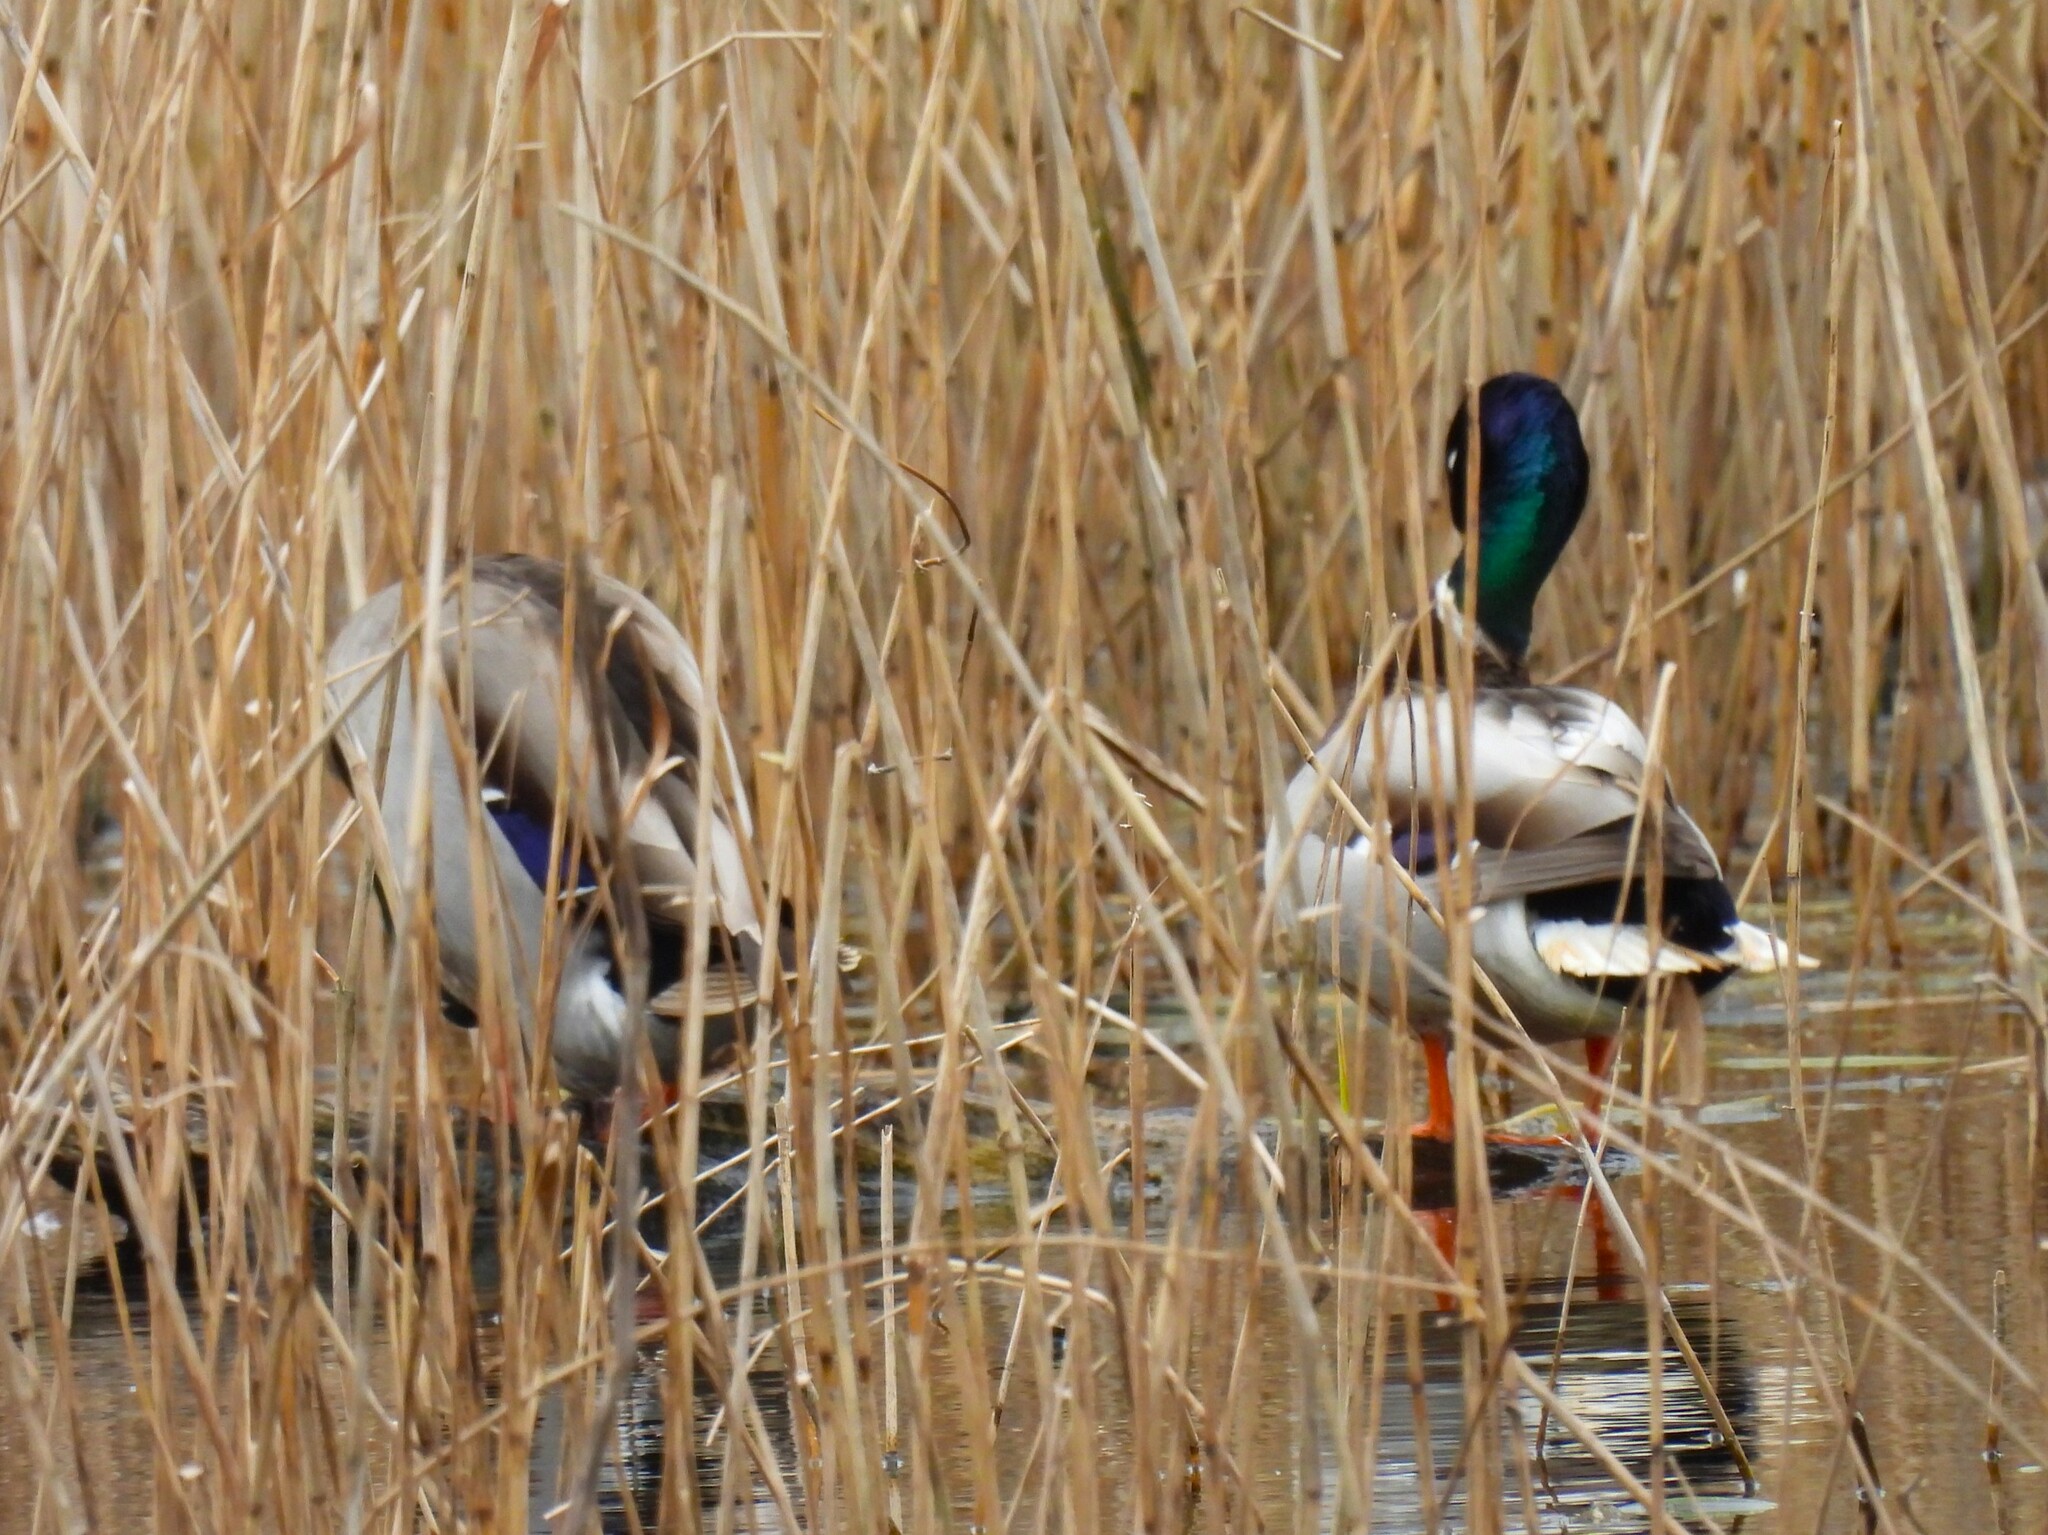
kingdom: Animalia
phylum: Chordata
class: Aves
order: Anseriformes
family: Anatidae
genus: Anas
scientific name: Anas platyrhynchos
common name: Mallard
